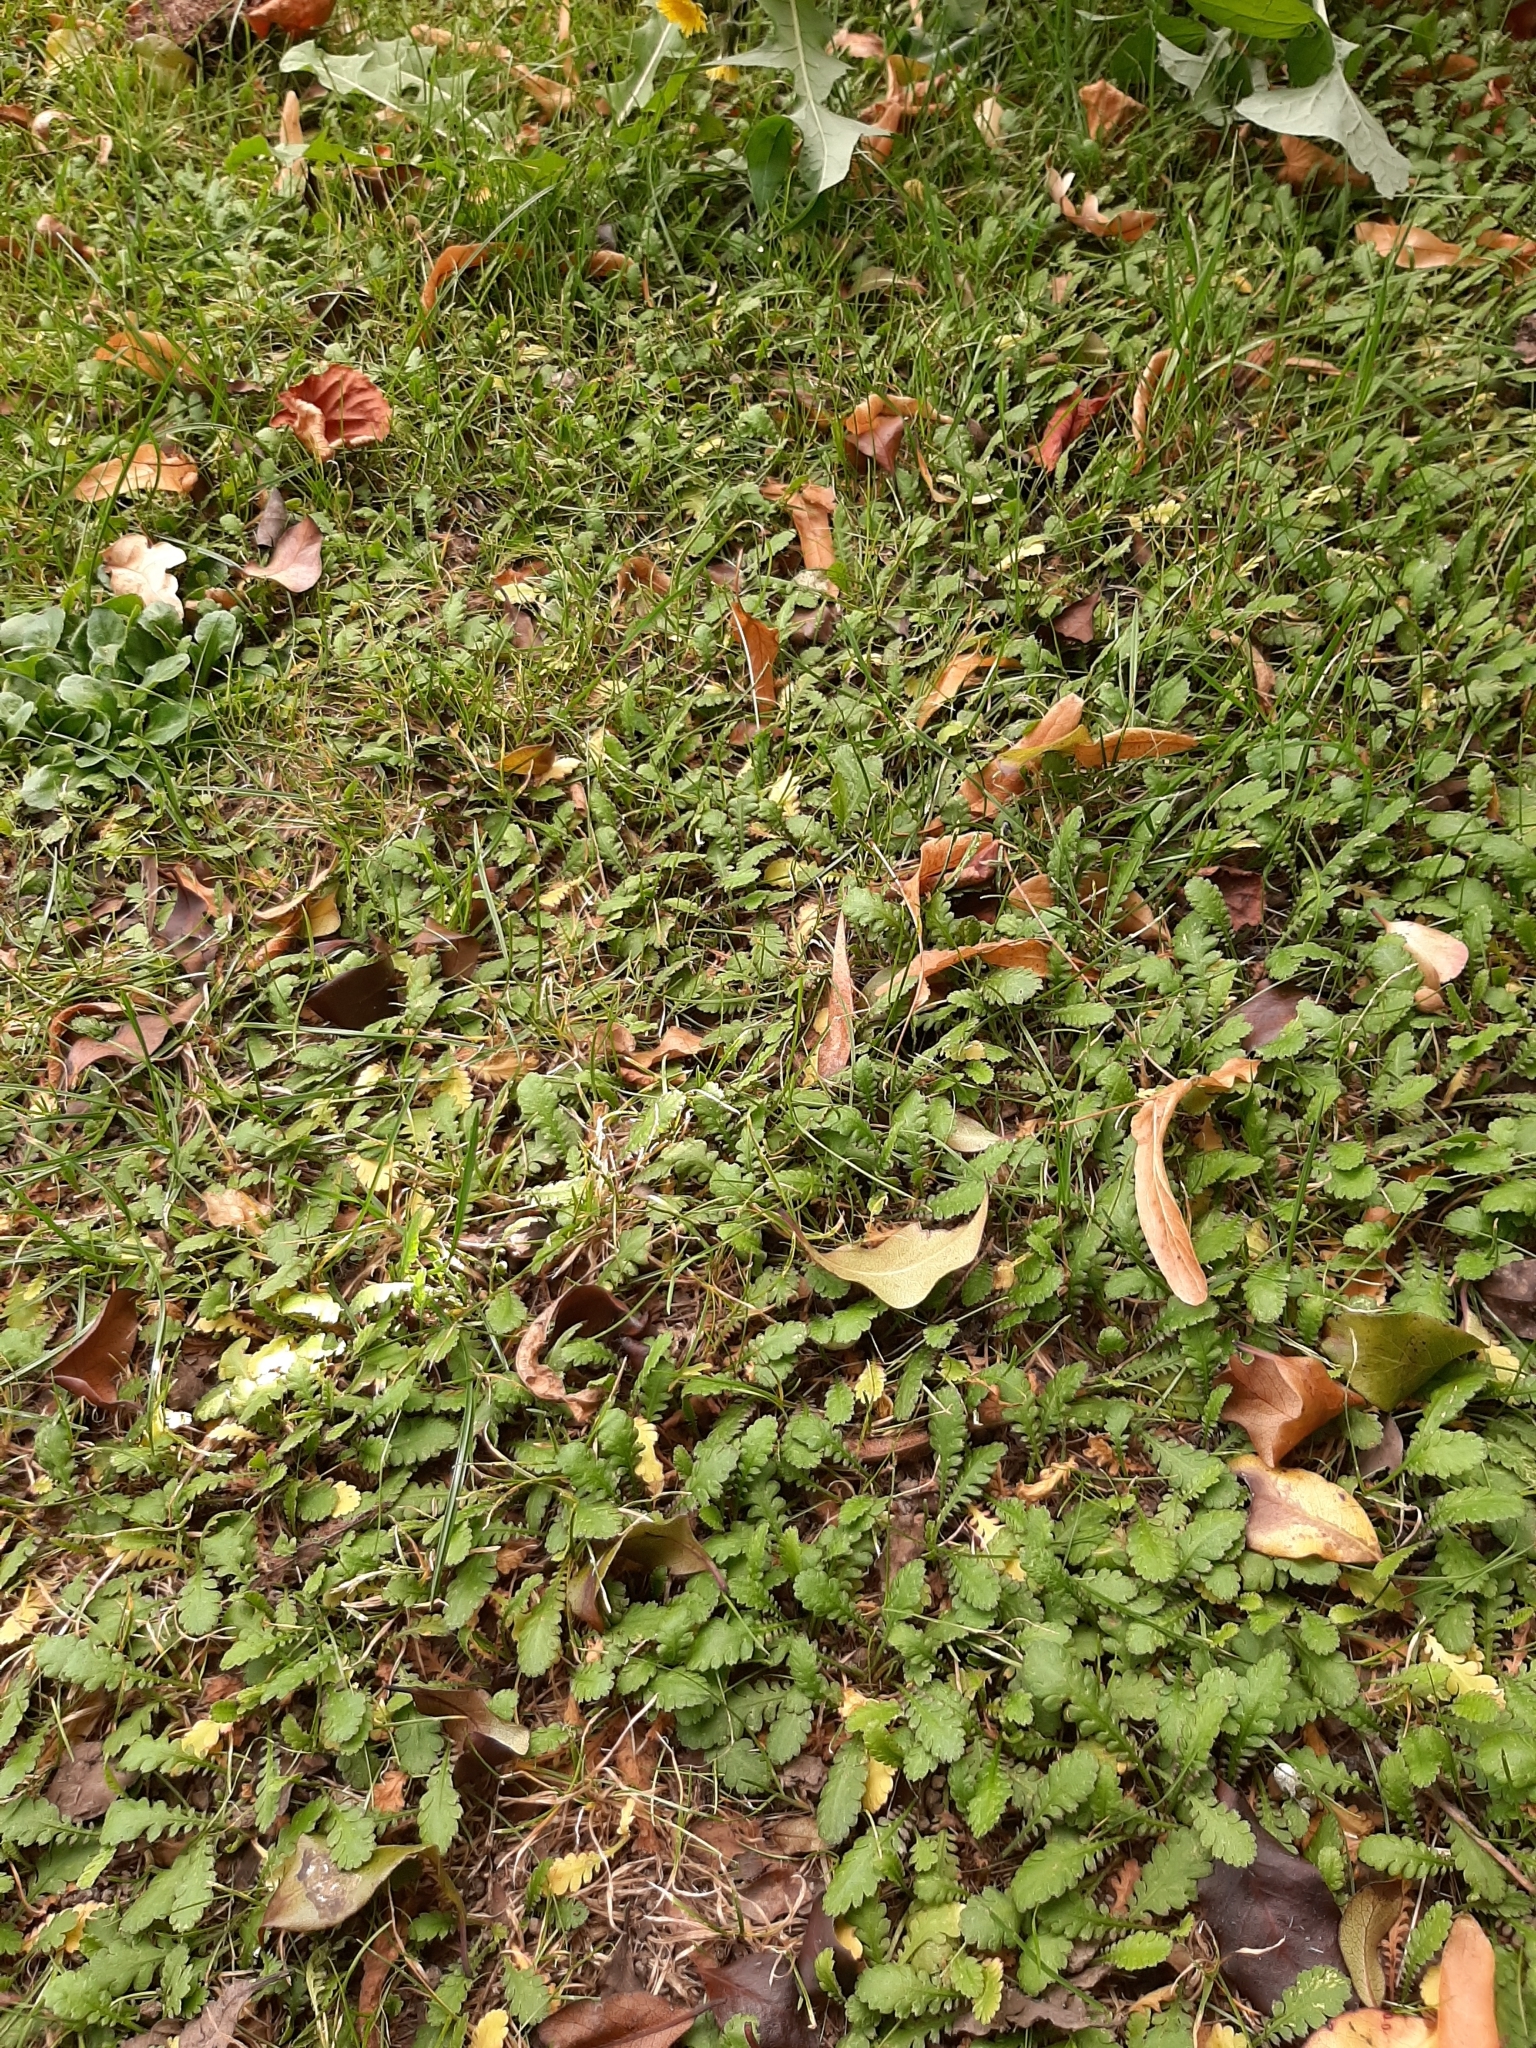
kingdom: Plantae
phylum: Tracheophyta
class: Magnoliopsida
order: Asterales
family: Asteraceae
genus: Leptinella
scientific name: Leptinella dioica
